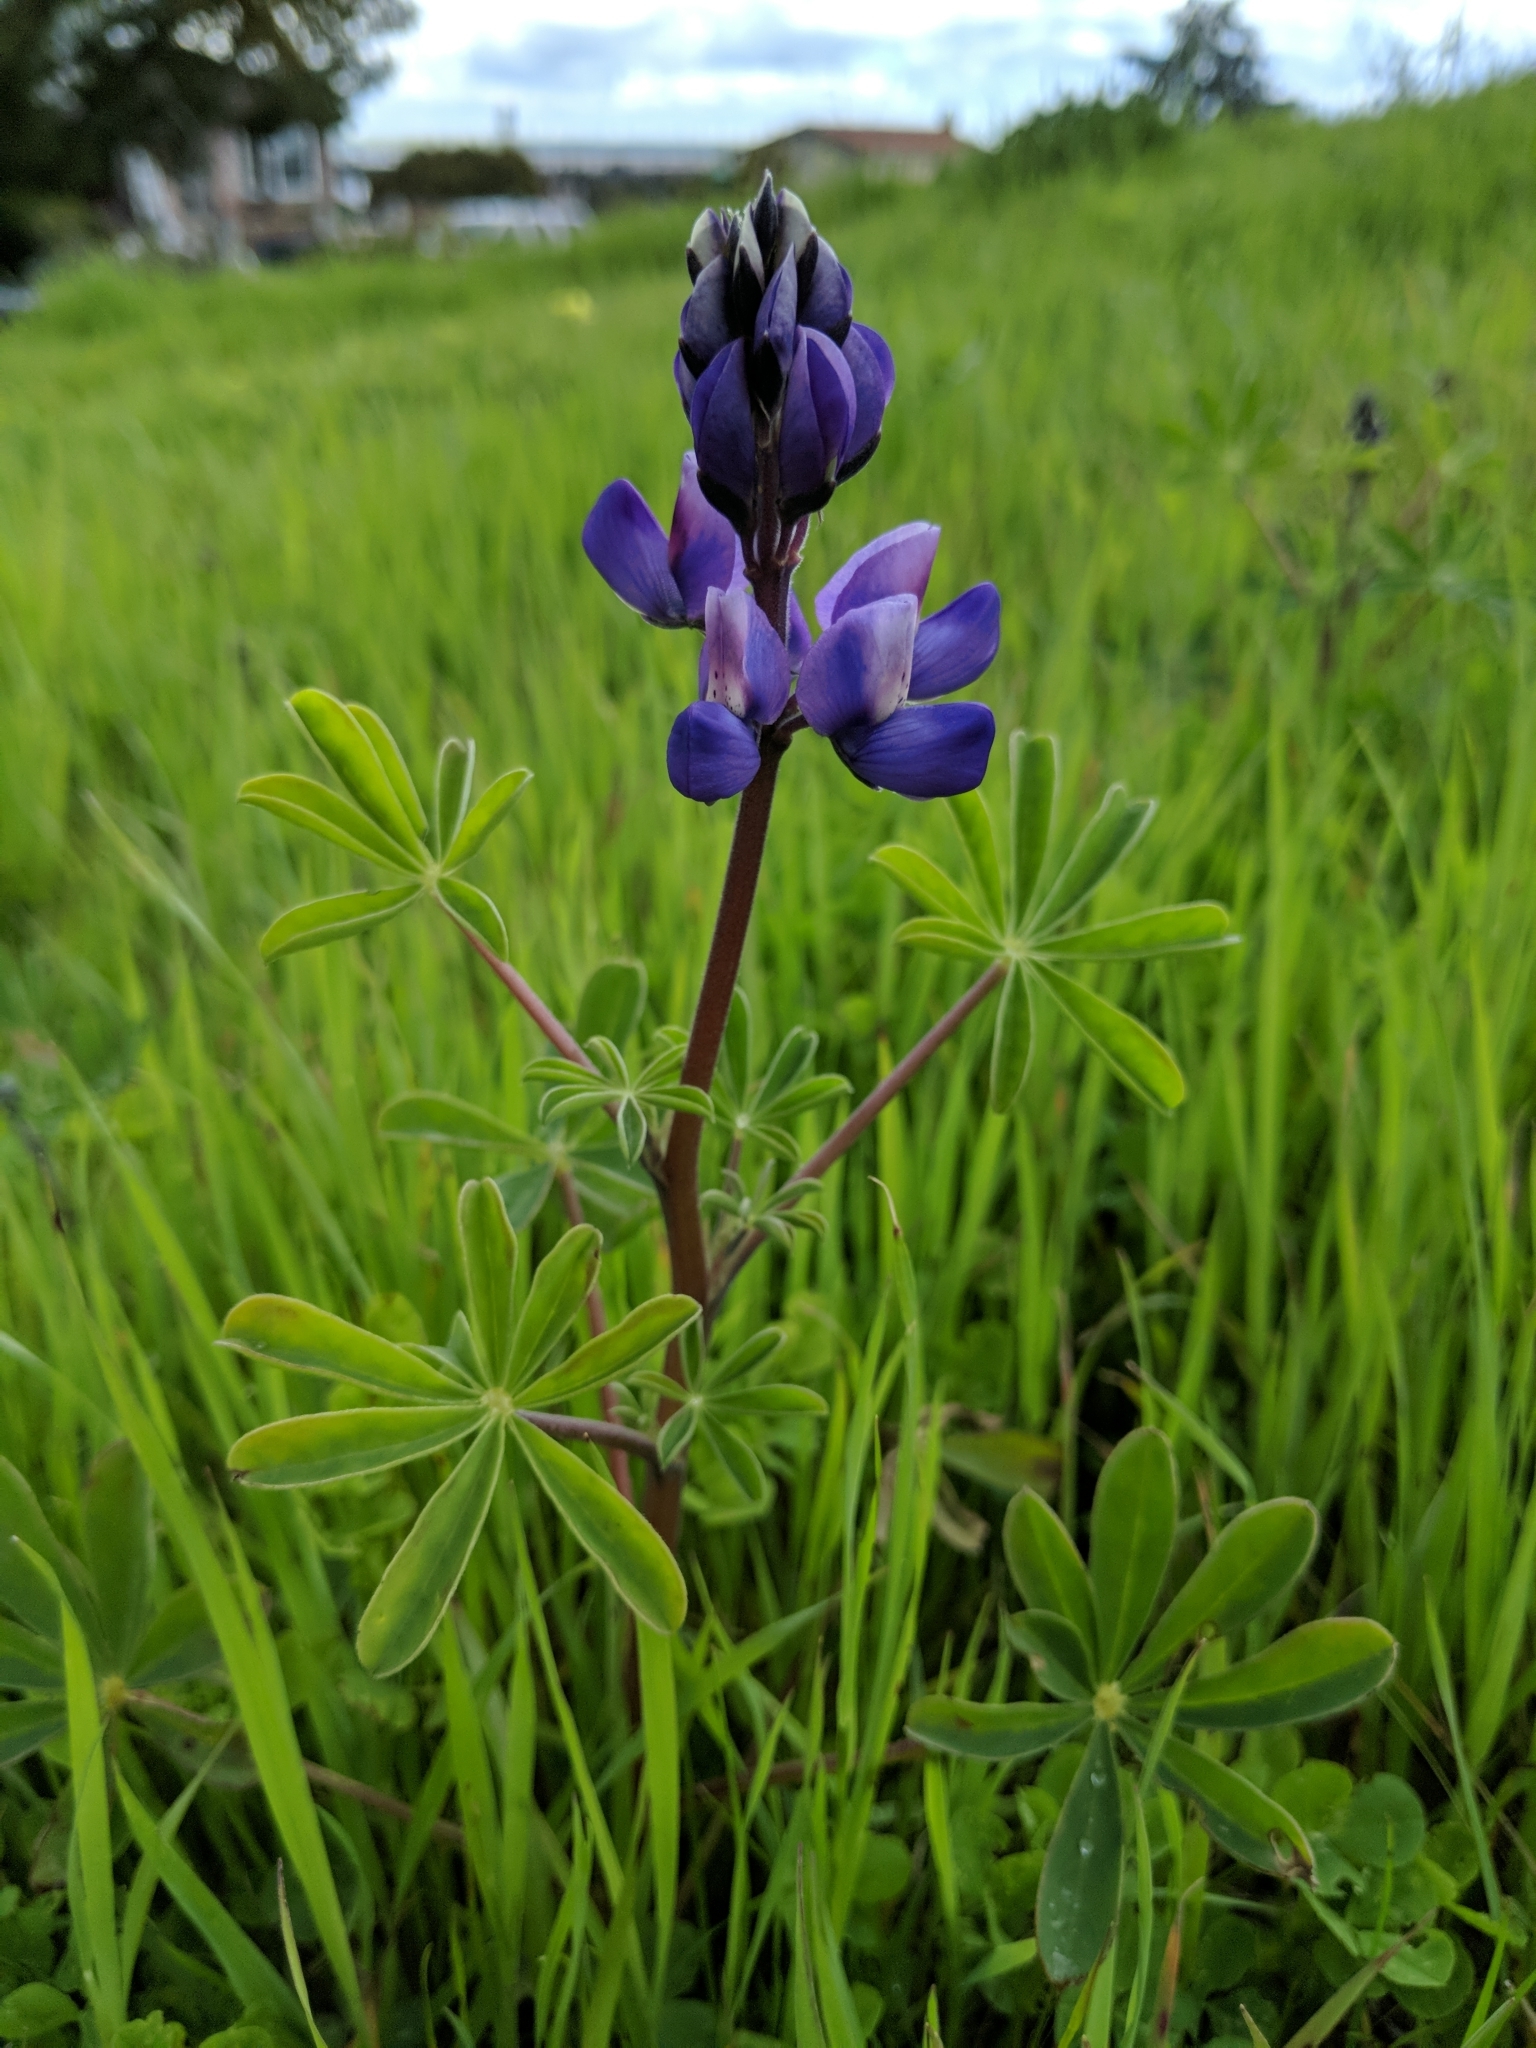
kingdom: Plantae
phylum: Tracheophyta
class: Magnoliopsida
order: Fabales
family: Fabaceae
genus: Lupinus
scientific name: Lupinus succulentus
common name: Arroyo lupine
